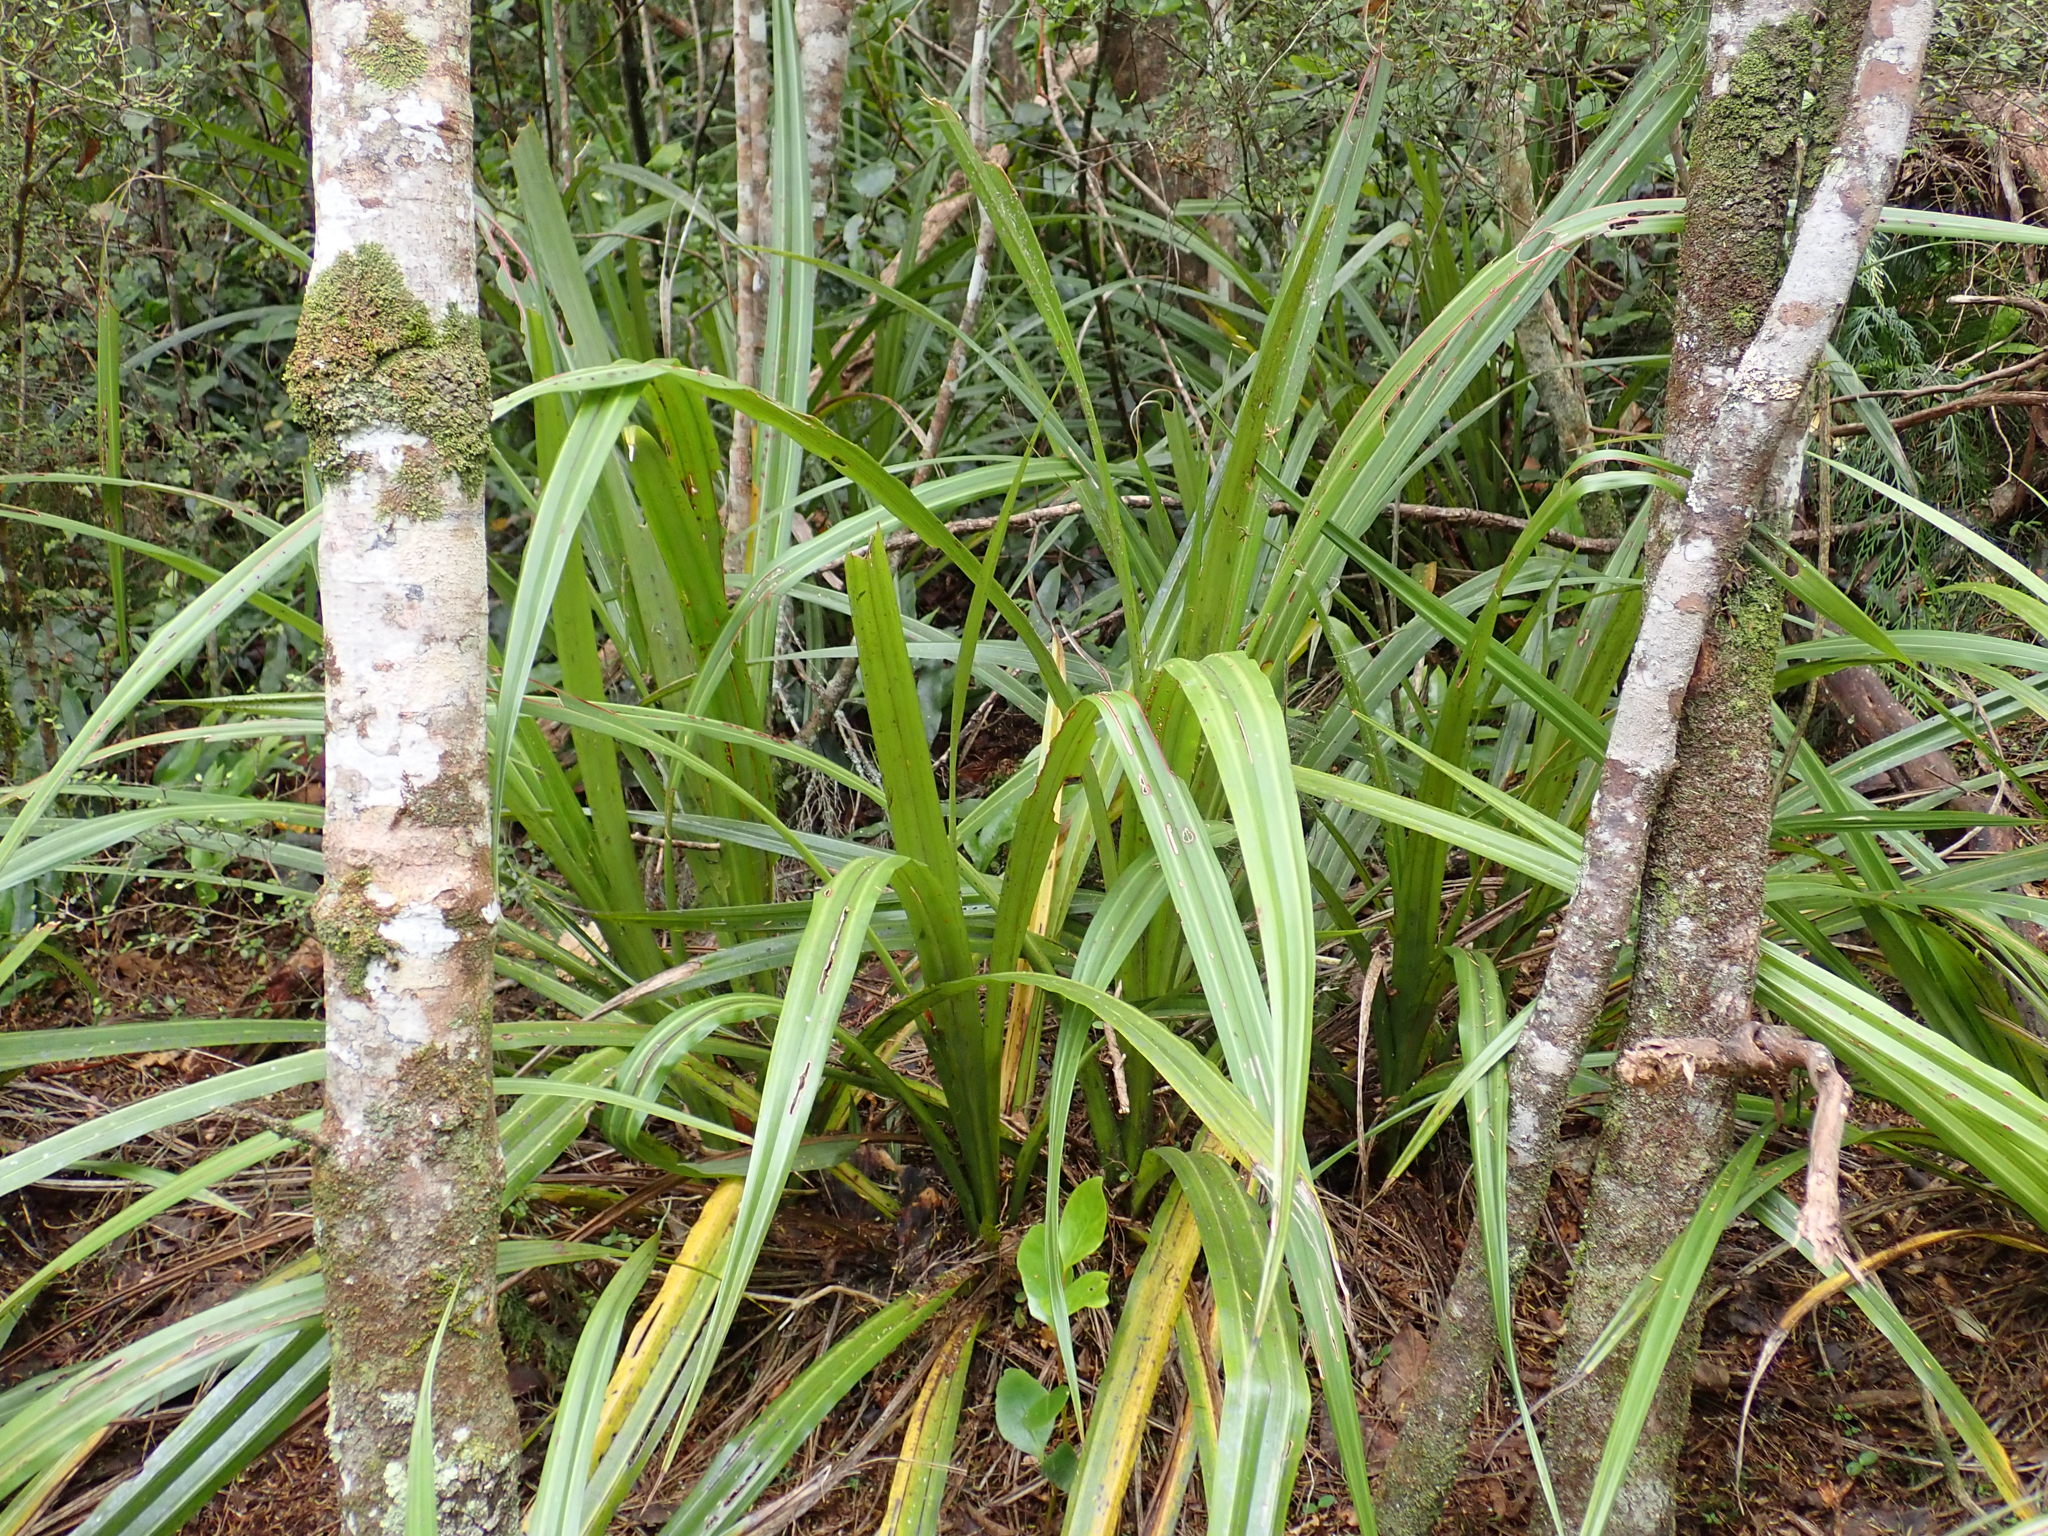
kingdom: Plantae
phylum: Tracheophyta
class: Liliopsida
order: Asparagales
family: Asteliaceae
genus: Astelia
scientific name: Astelia fragrans
